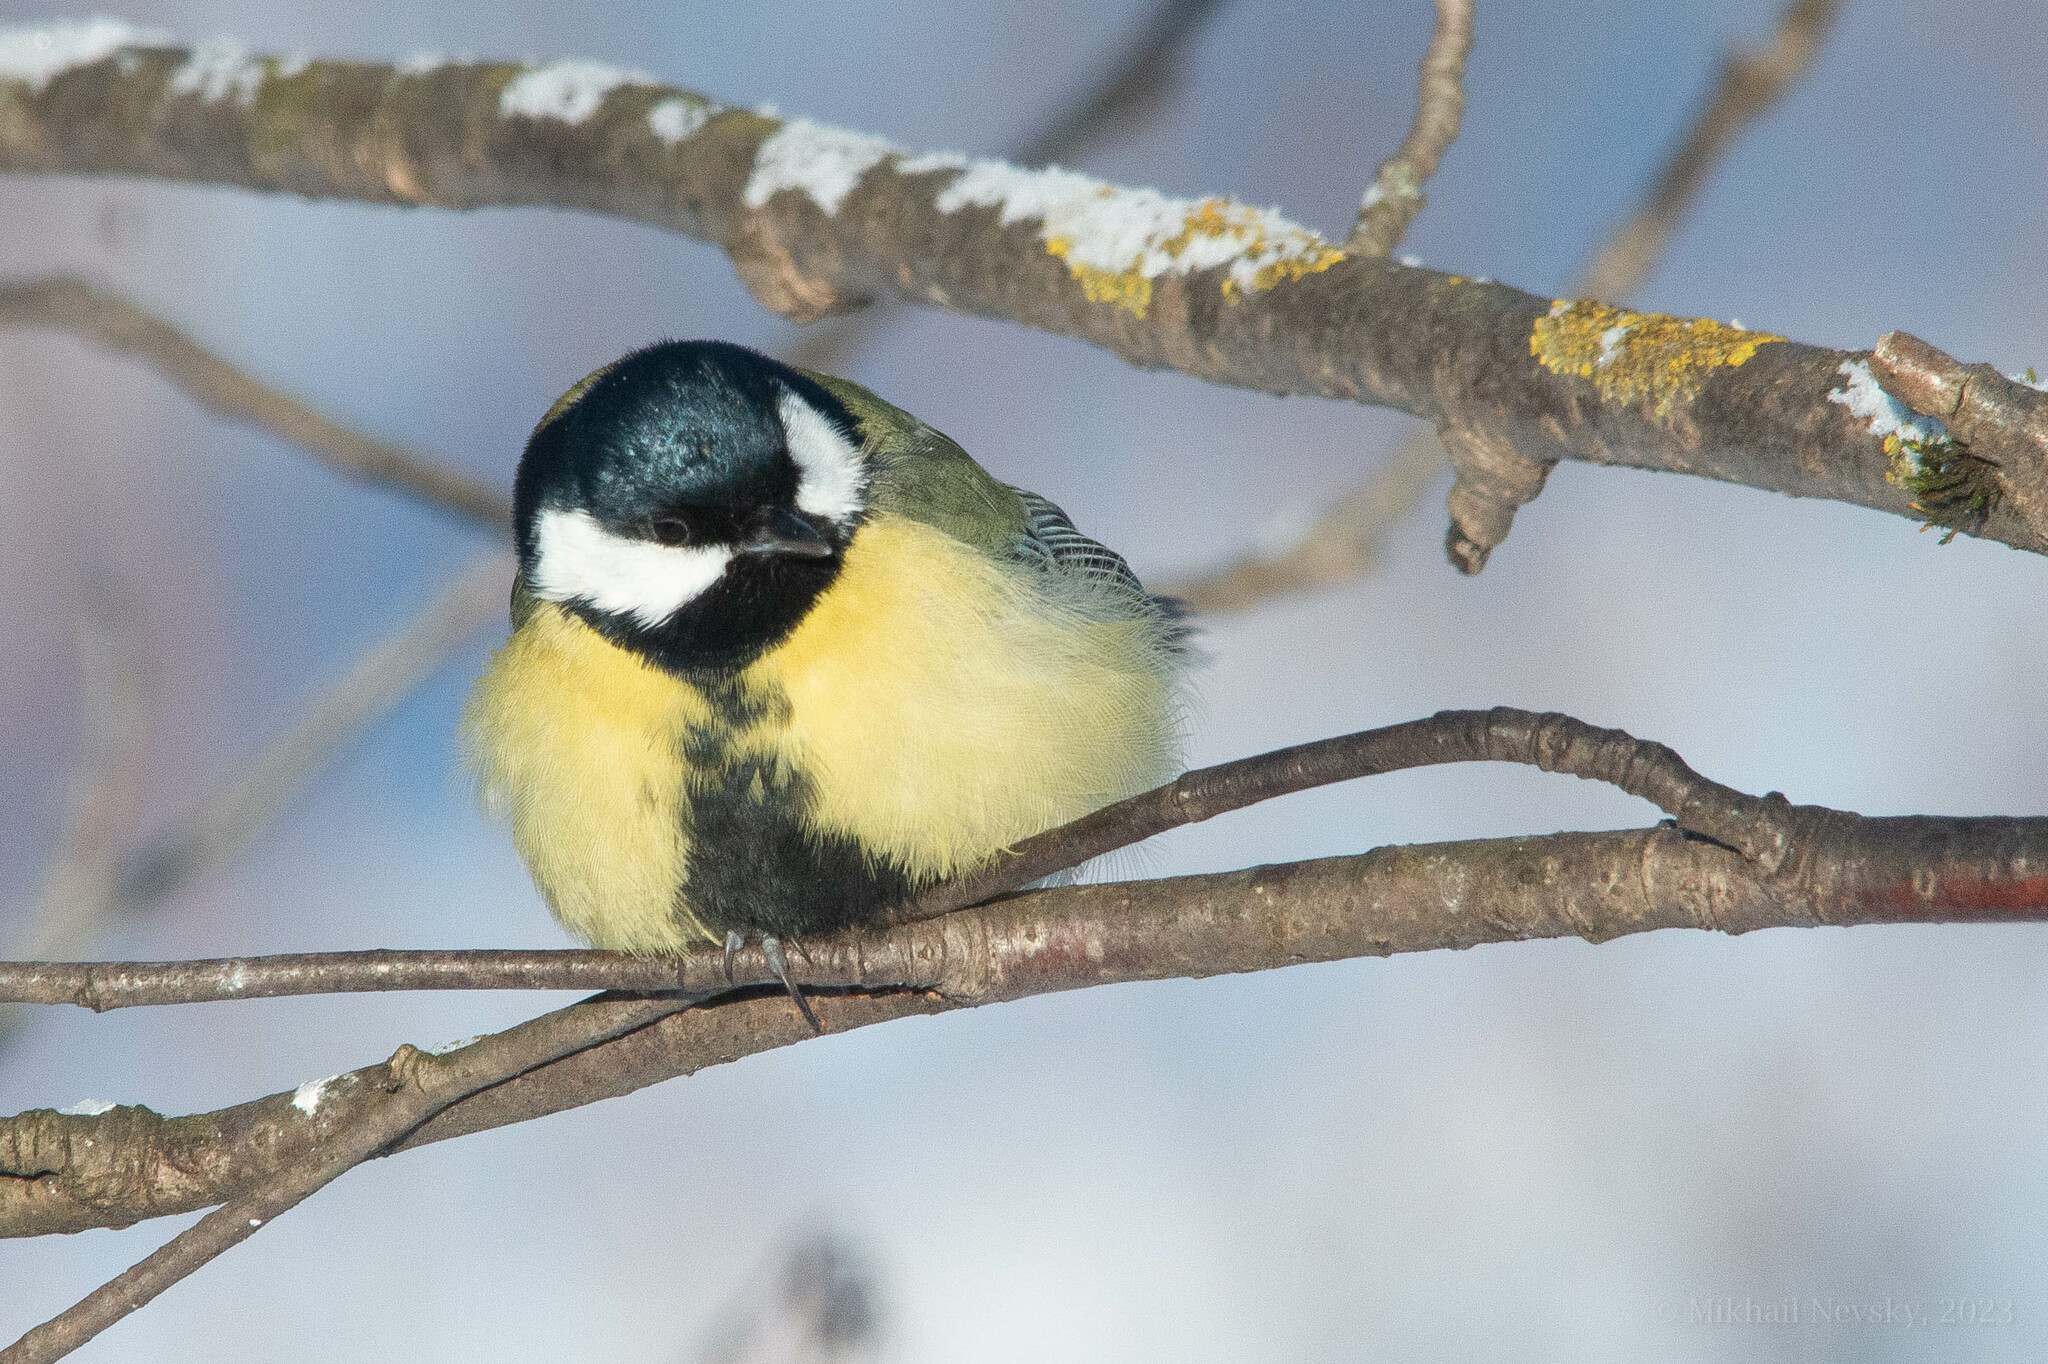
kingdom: Animalia
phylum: Chordata
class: Aves
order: Passeriformes
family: Paridae
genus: Parus
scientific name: Parus major
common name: Great tit
